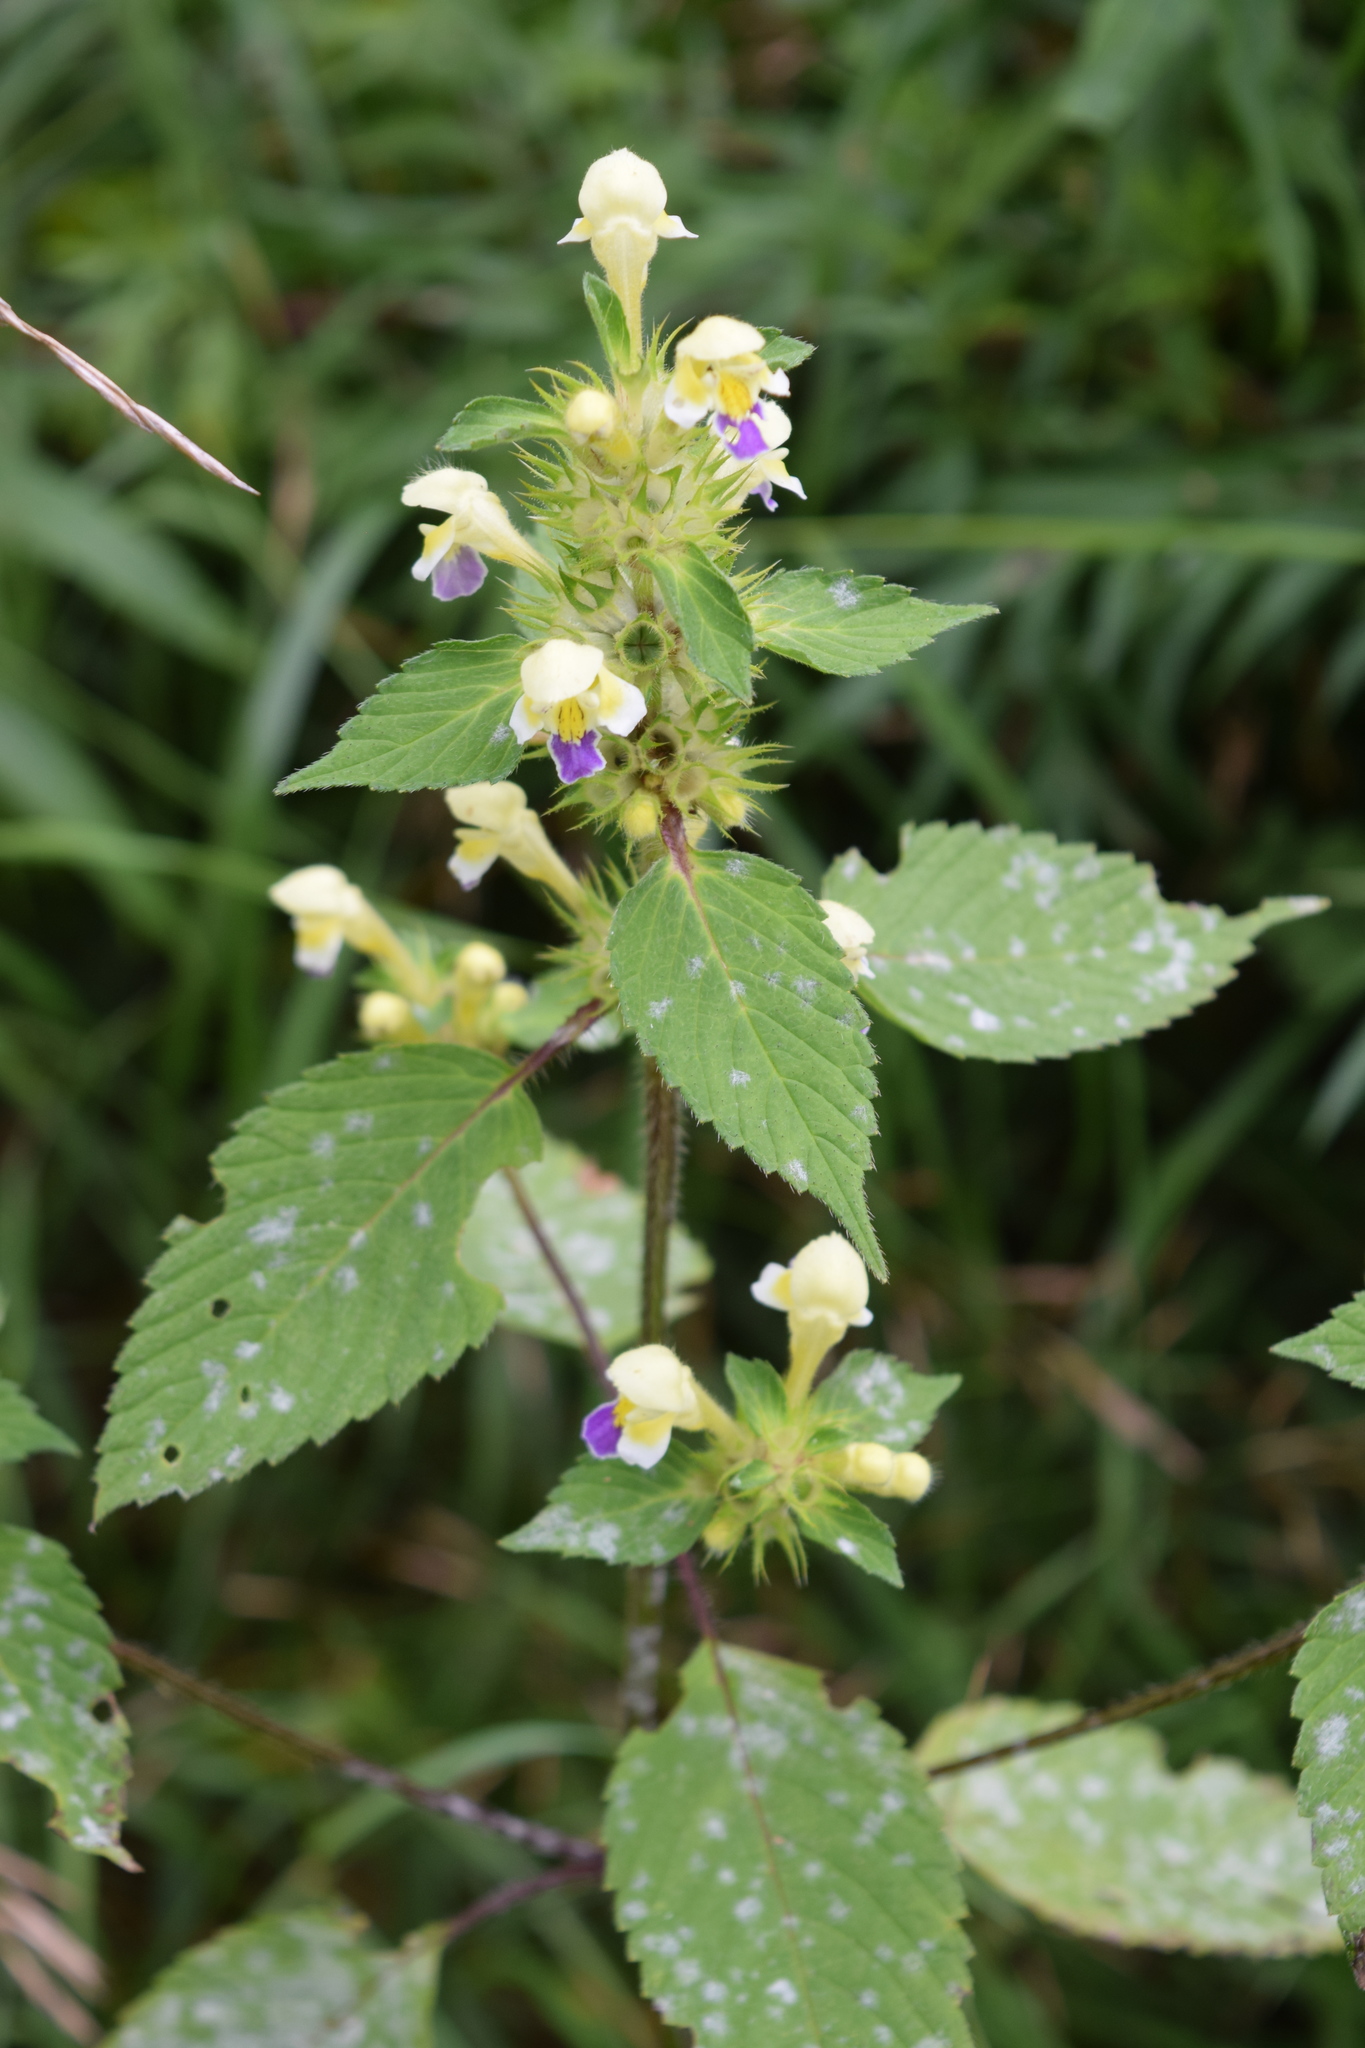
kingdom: Plantae
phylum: Tracheophyta
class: Magnoliopsida
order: Lamiales
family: Lamiaceae
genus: Galeopsis
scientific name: Galeopsis speciosa
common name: Large-flowered hemp-nettle
